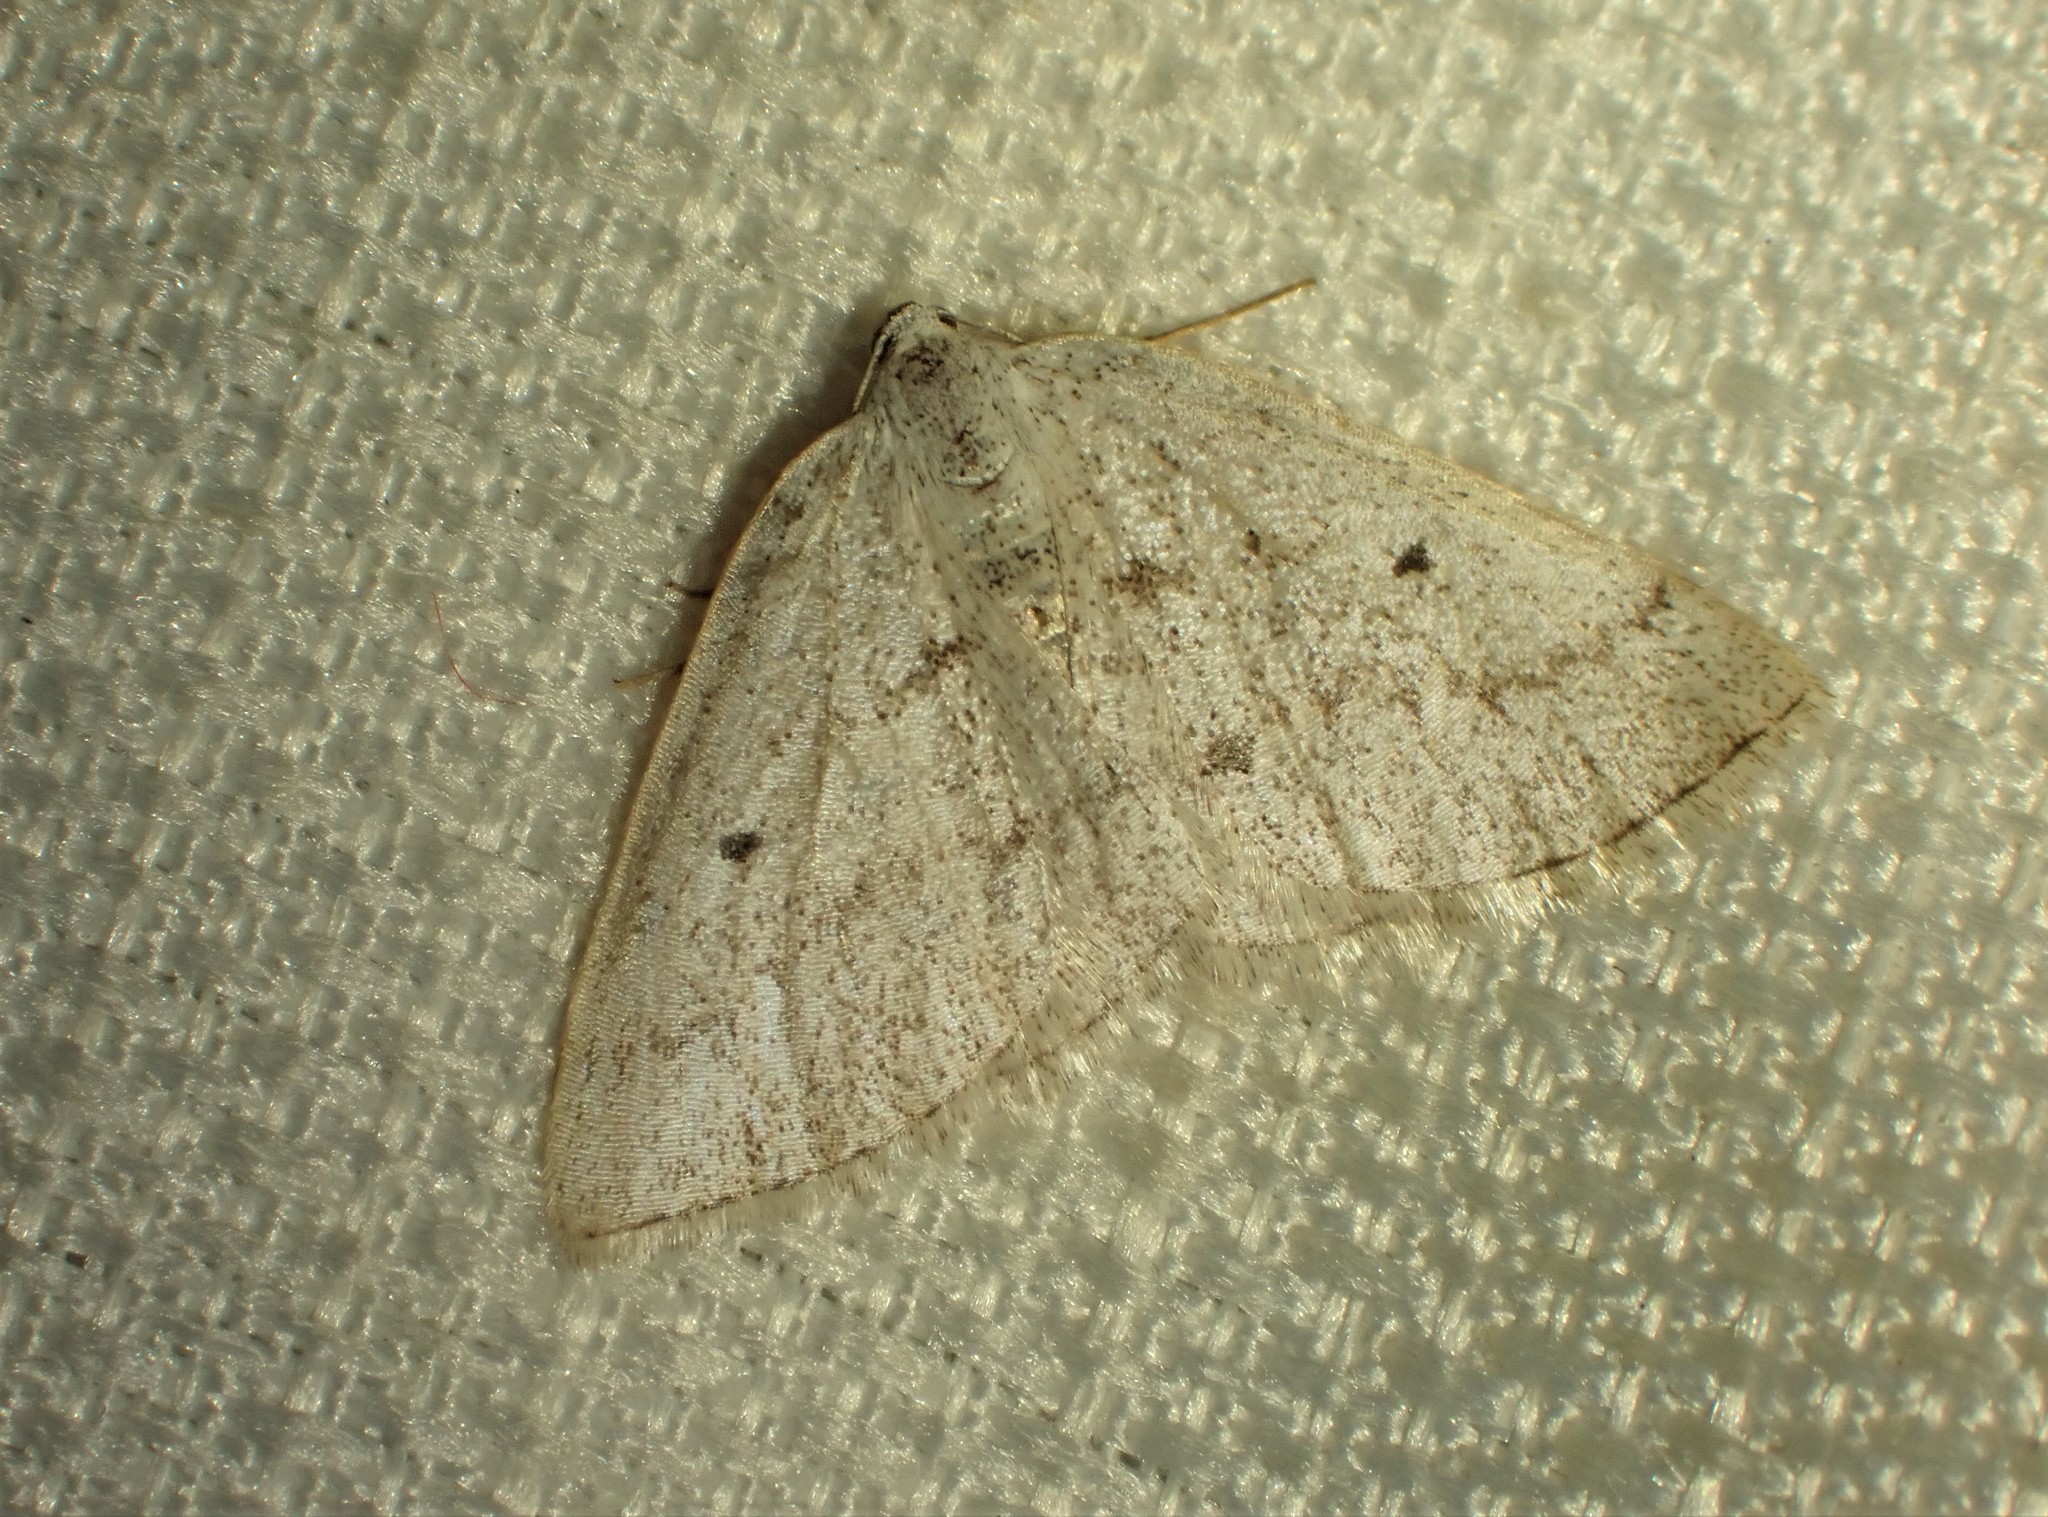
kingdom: Animalia
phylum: Arthropoda
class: Insecta
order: Lepidoptera
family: Geometridae
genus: Lomographa
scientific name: Lomographa glomeraria
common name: Gray spring moth
